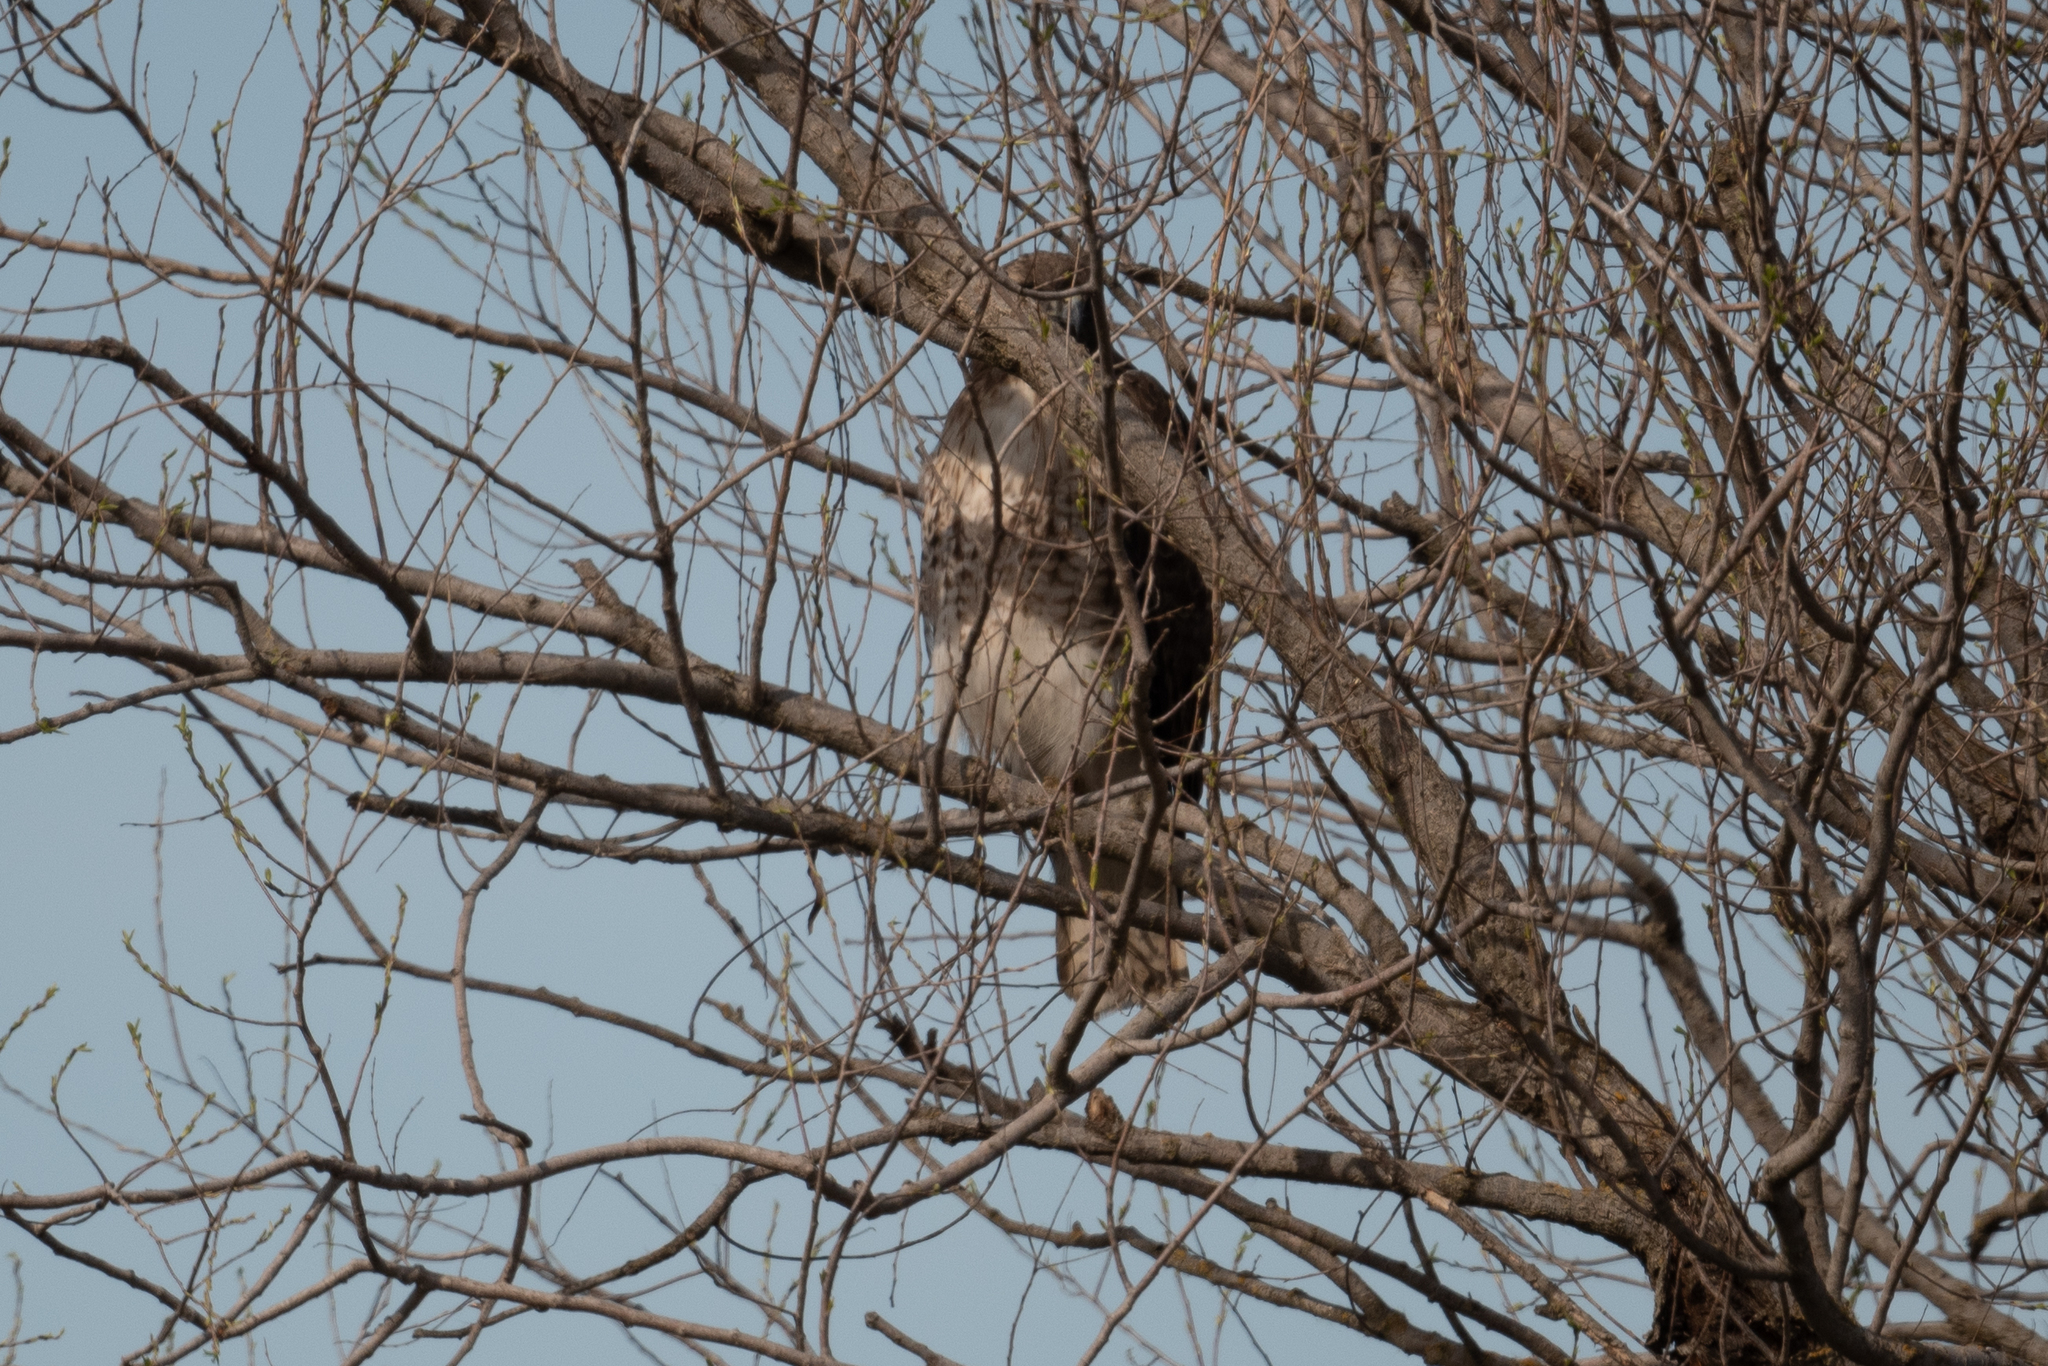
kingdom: Animalia
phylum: Chordata
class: Aves
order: Accipitriformes
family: Accipitridae
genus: Buteo
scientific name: Buteo jamaicensis
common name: Red-tailed hawk
